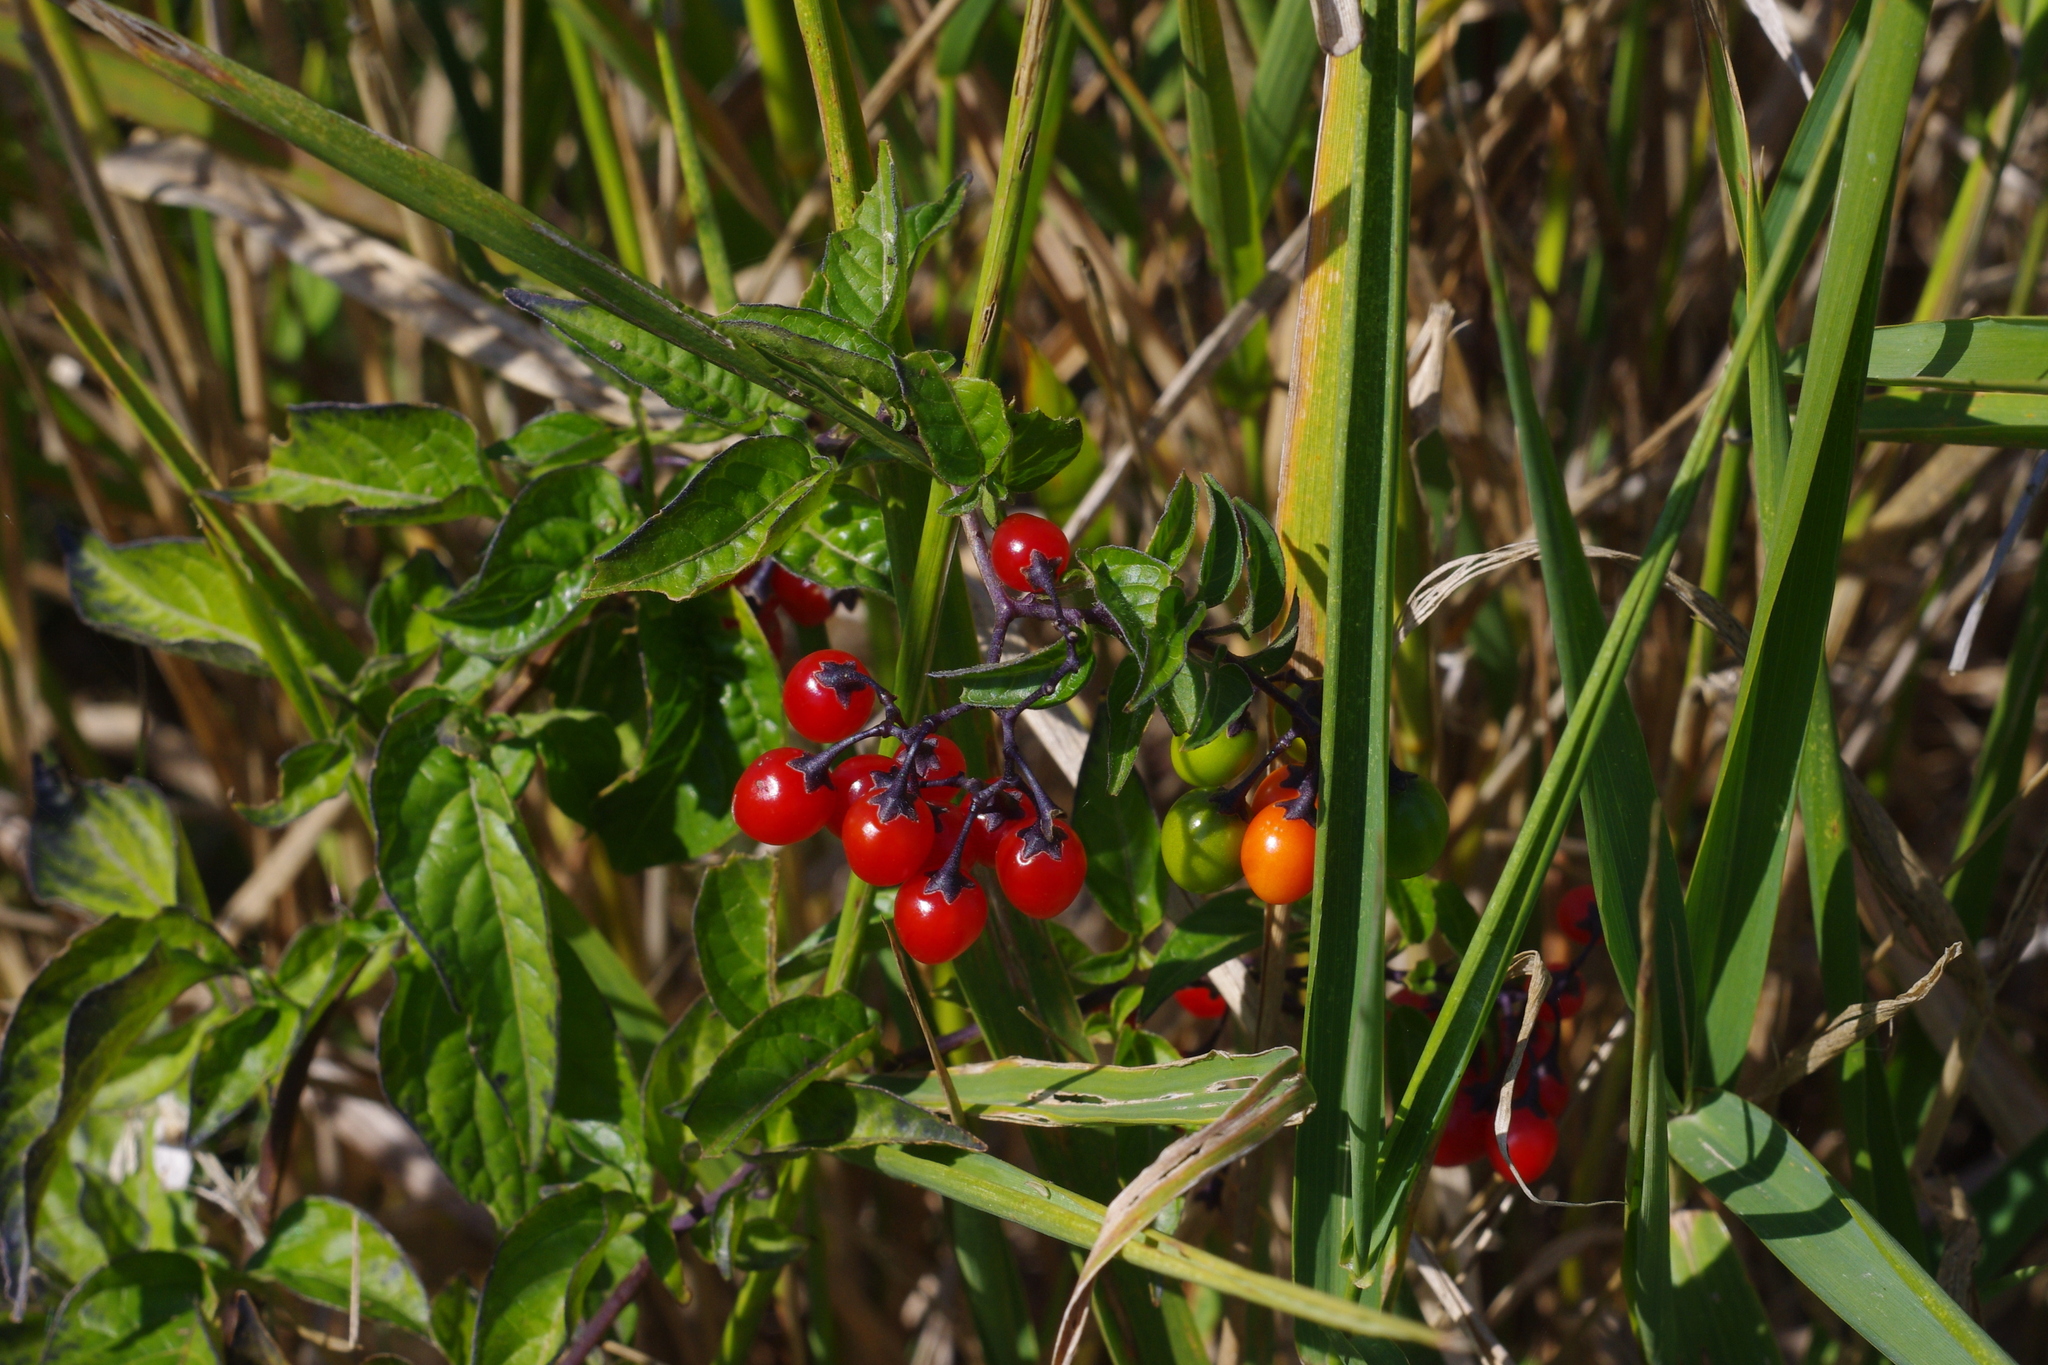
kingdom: Plantae
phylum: Tracheophyta
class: Magnoliopsida
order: Solanales
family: Solanaceae
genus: Solanum
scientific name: Solanum dulcamara
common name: Climbing nightshade
